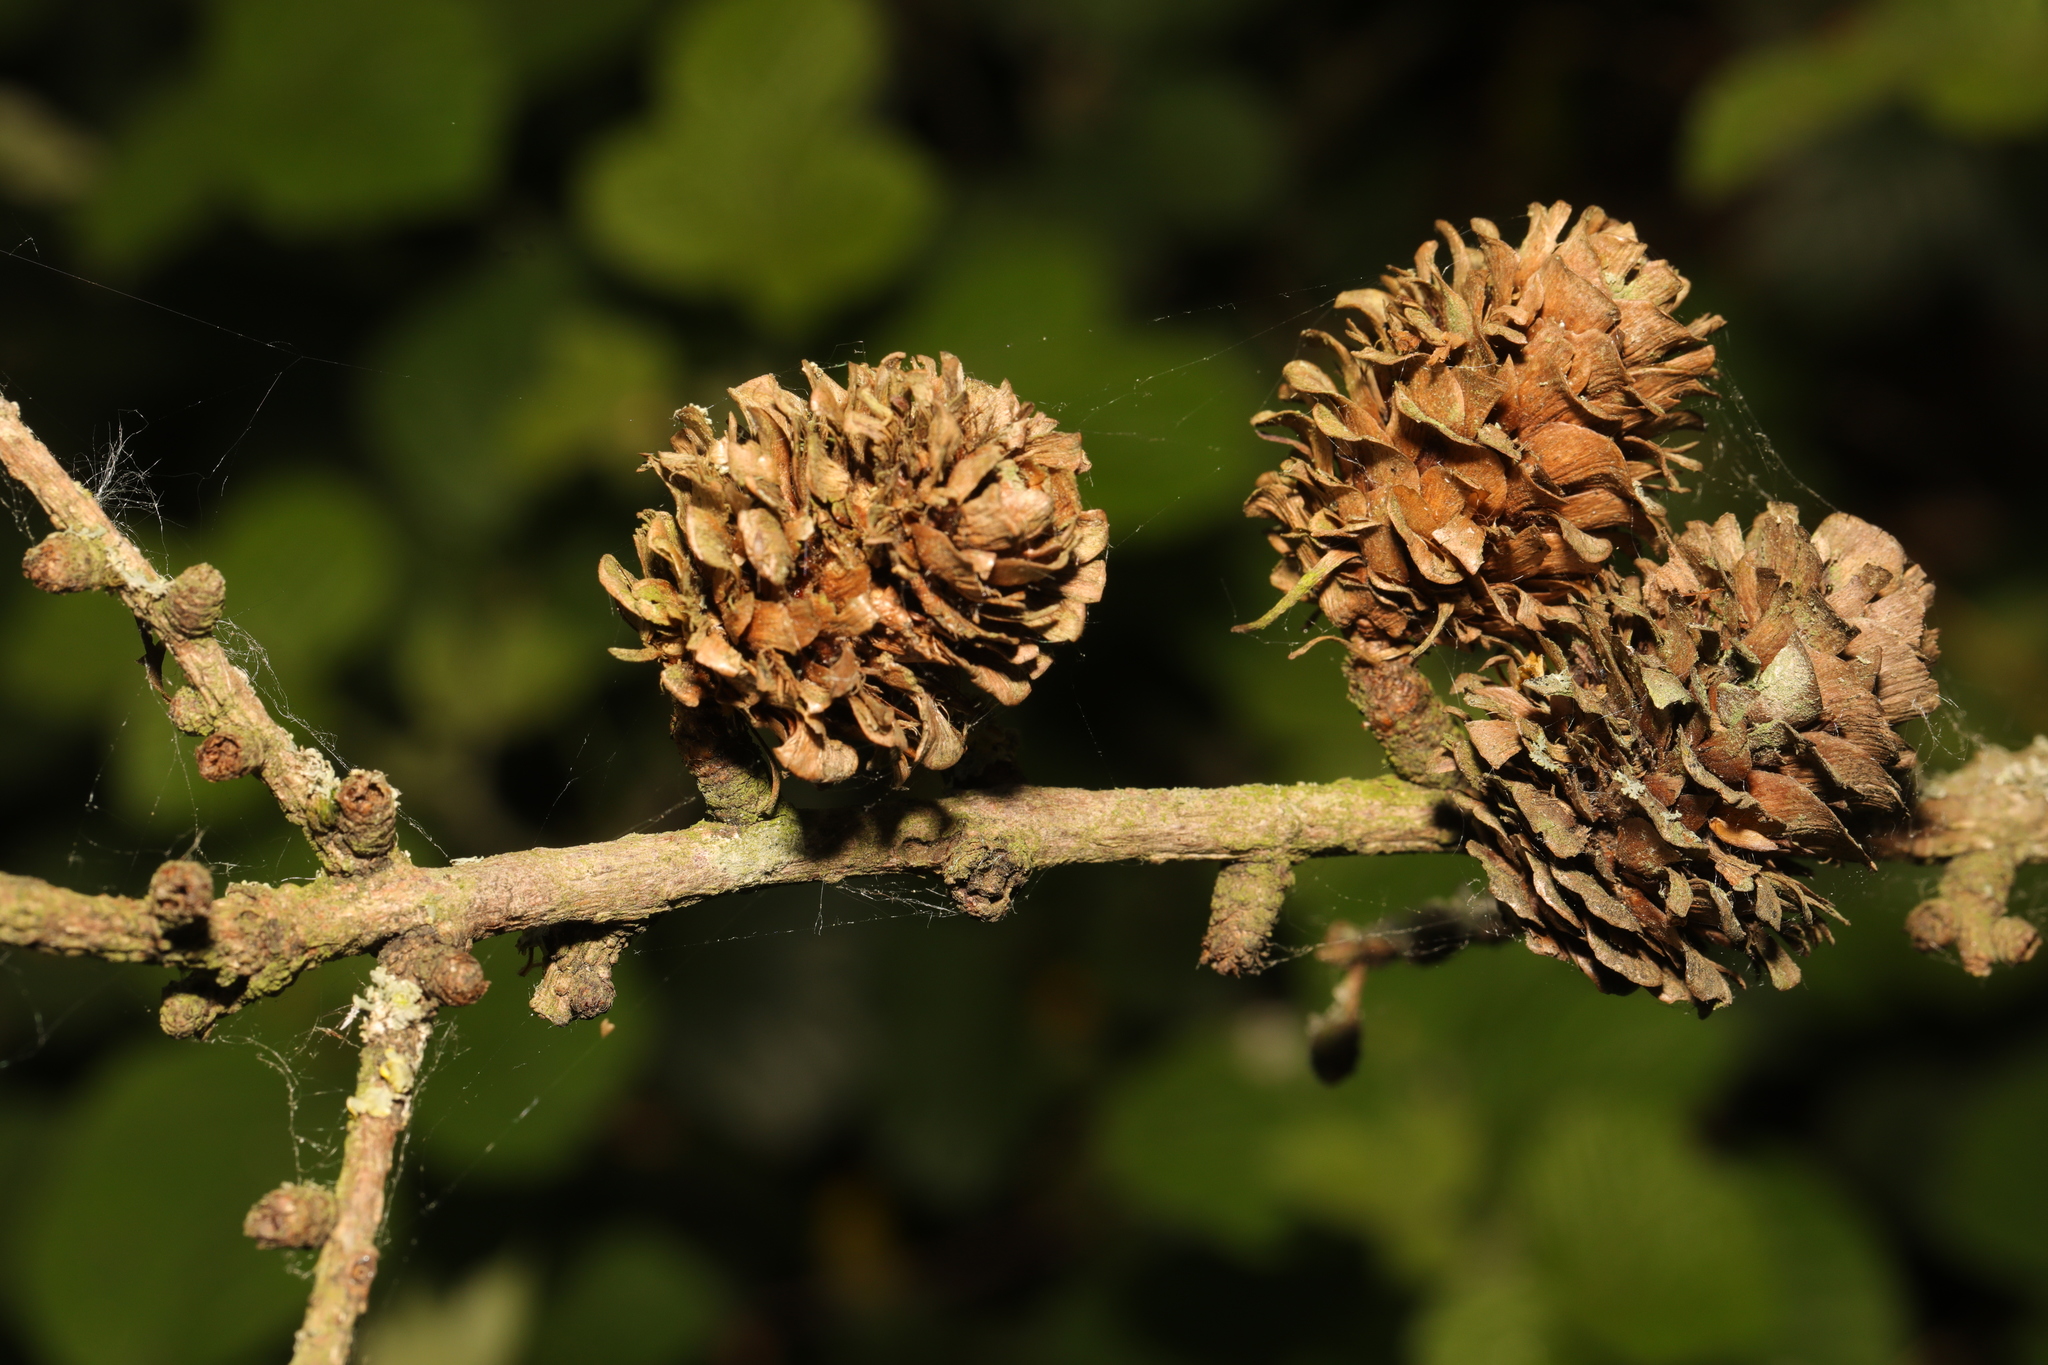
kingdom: Plantae
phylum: Tracheophyta
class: Pinopsida
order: Pinales
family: Pinaceae
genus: Larix
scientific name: Larix kaempferi
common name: Japanese larch
